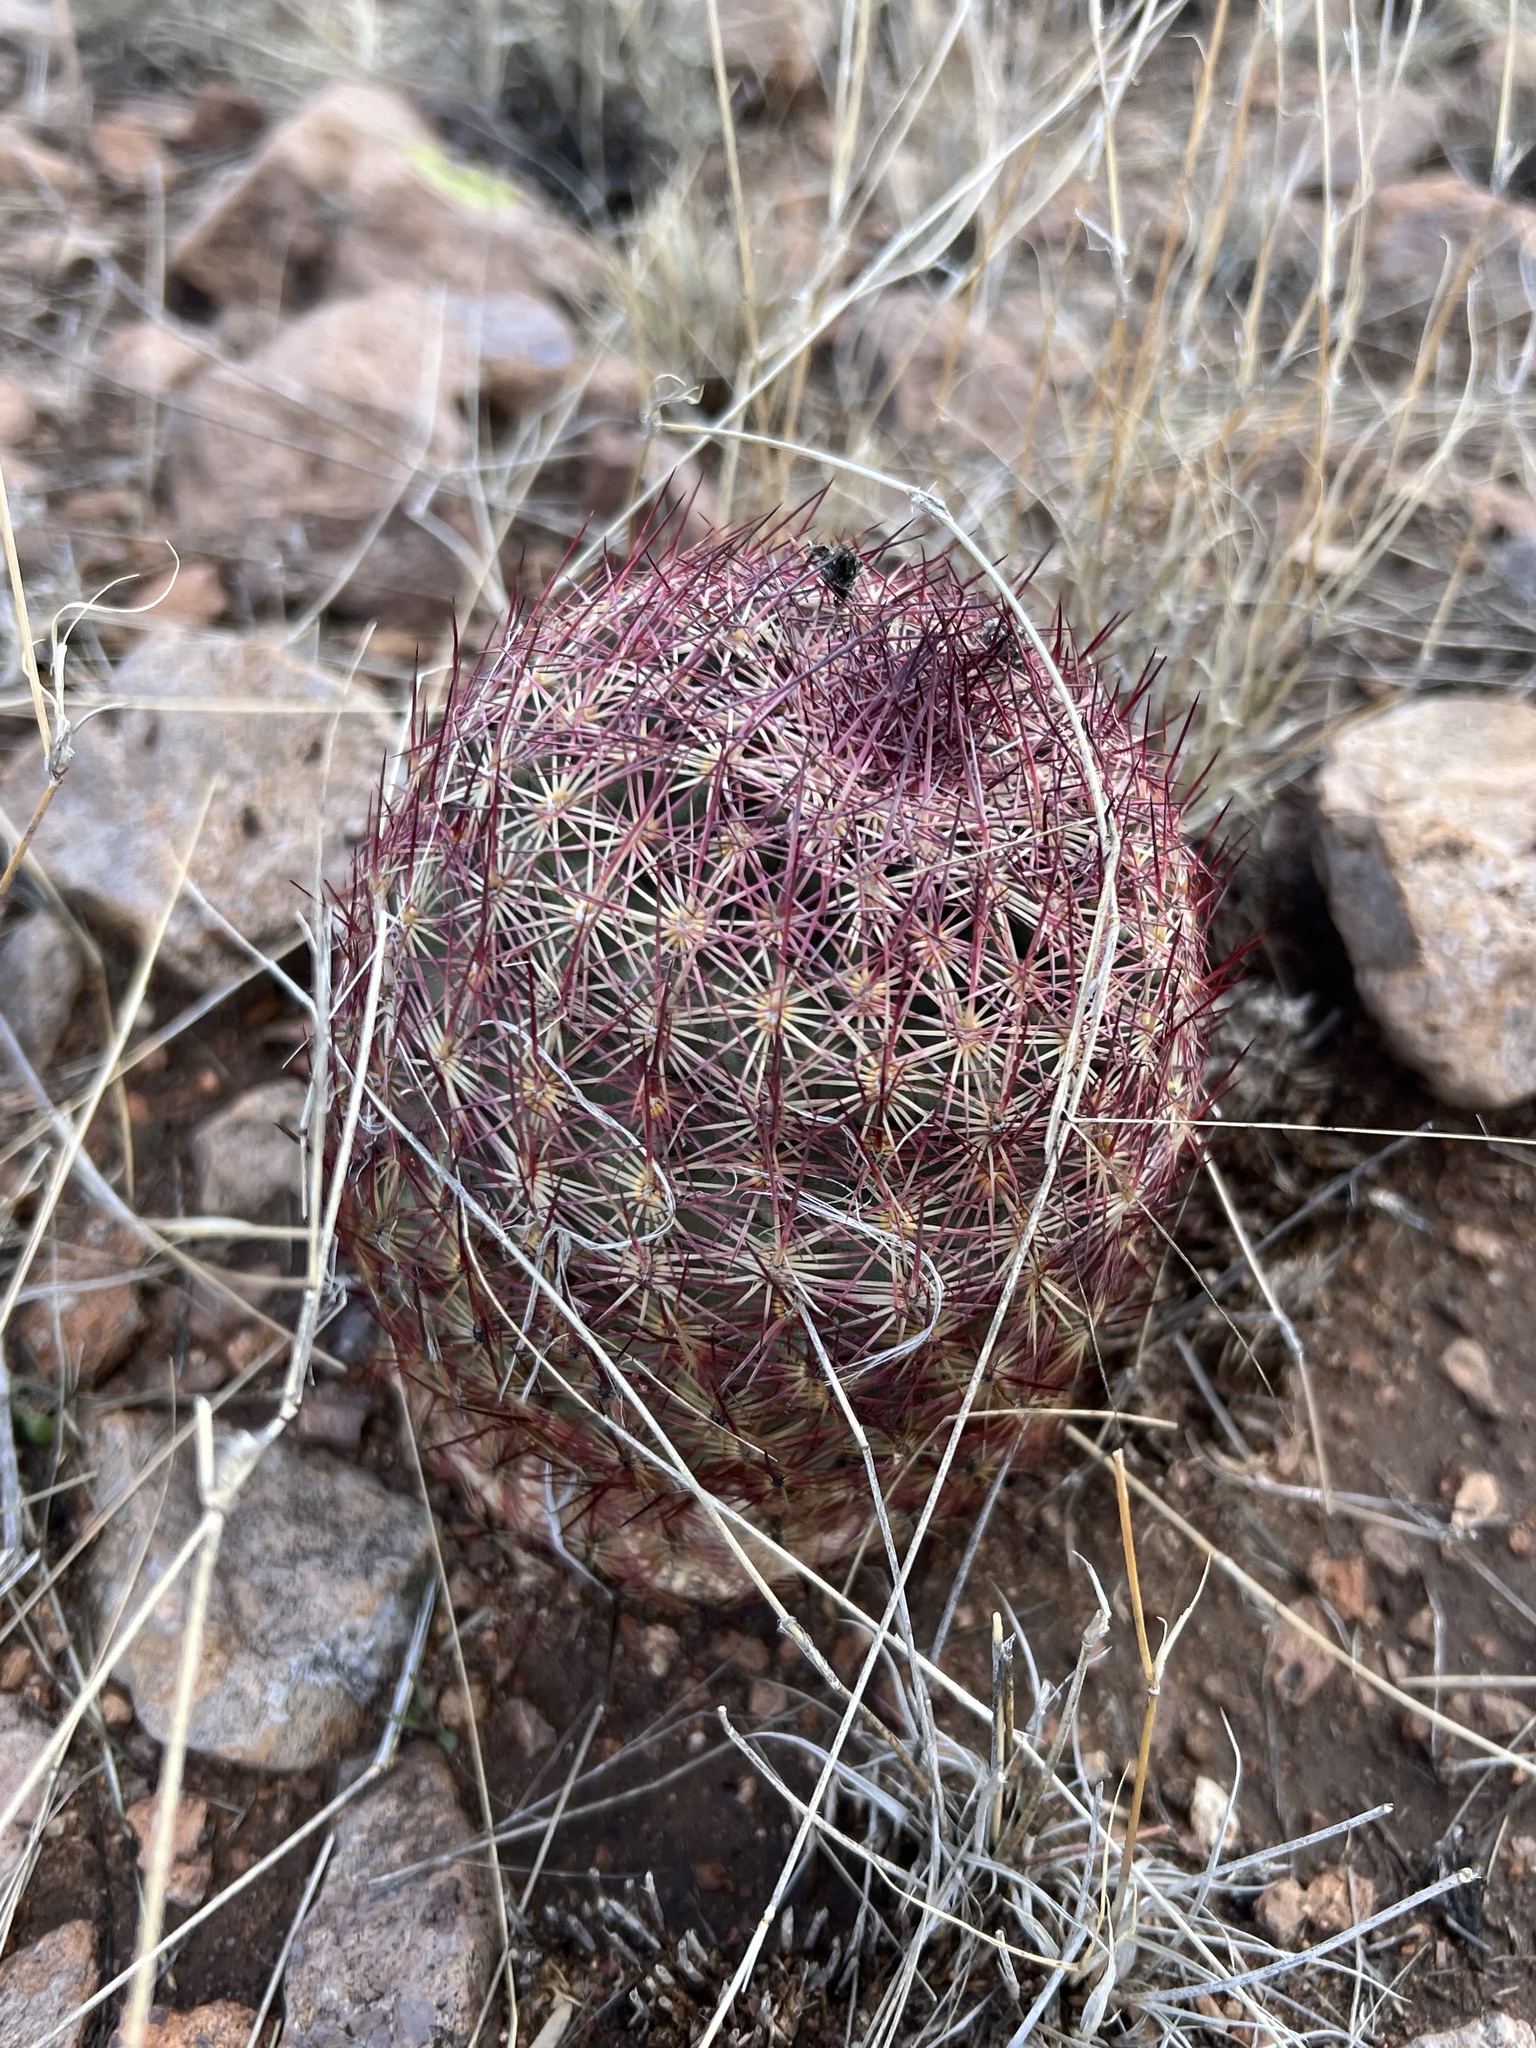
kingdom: Plantae
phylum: Tracheophyta
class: Magnoliopsida
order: Caryophyllales
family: Cactaceae
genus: Sclerocactus
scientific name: Sclerocactus johnsonii
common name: Eight-spine fishhook cactus
